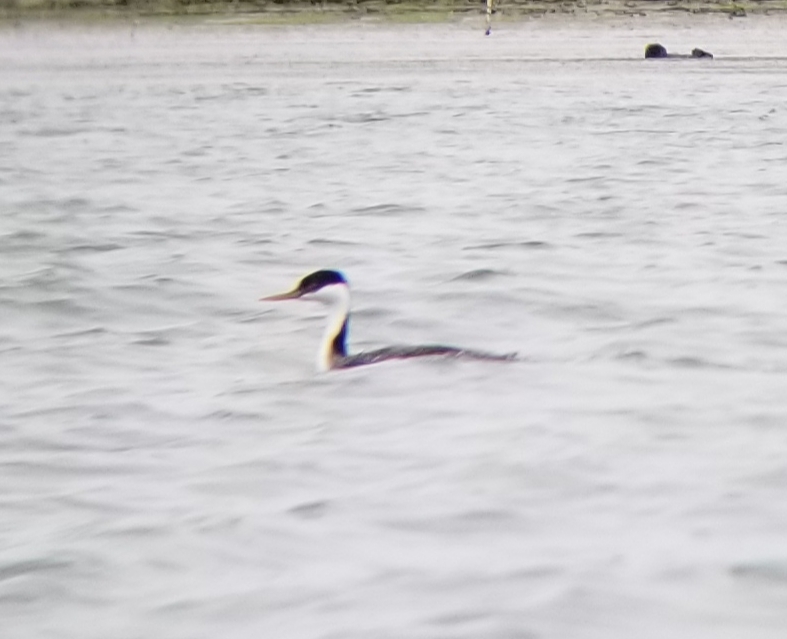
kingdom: Animalia
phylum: Chordata
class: Aves
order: Podicipediformes
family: Podicipedidae
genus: Aechmophorus
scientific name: Aechmophorus occidentalis
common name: Western grebe
